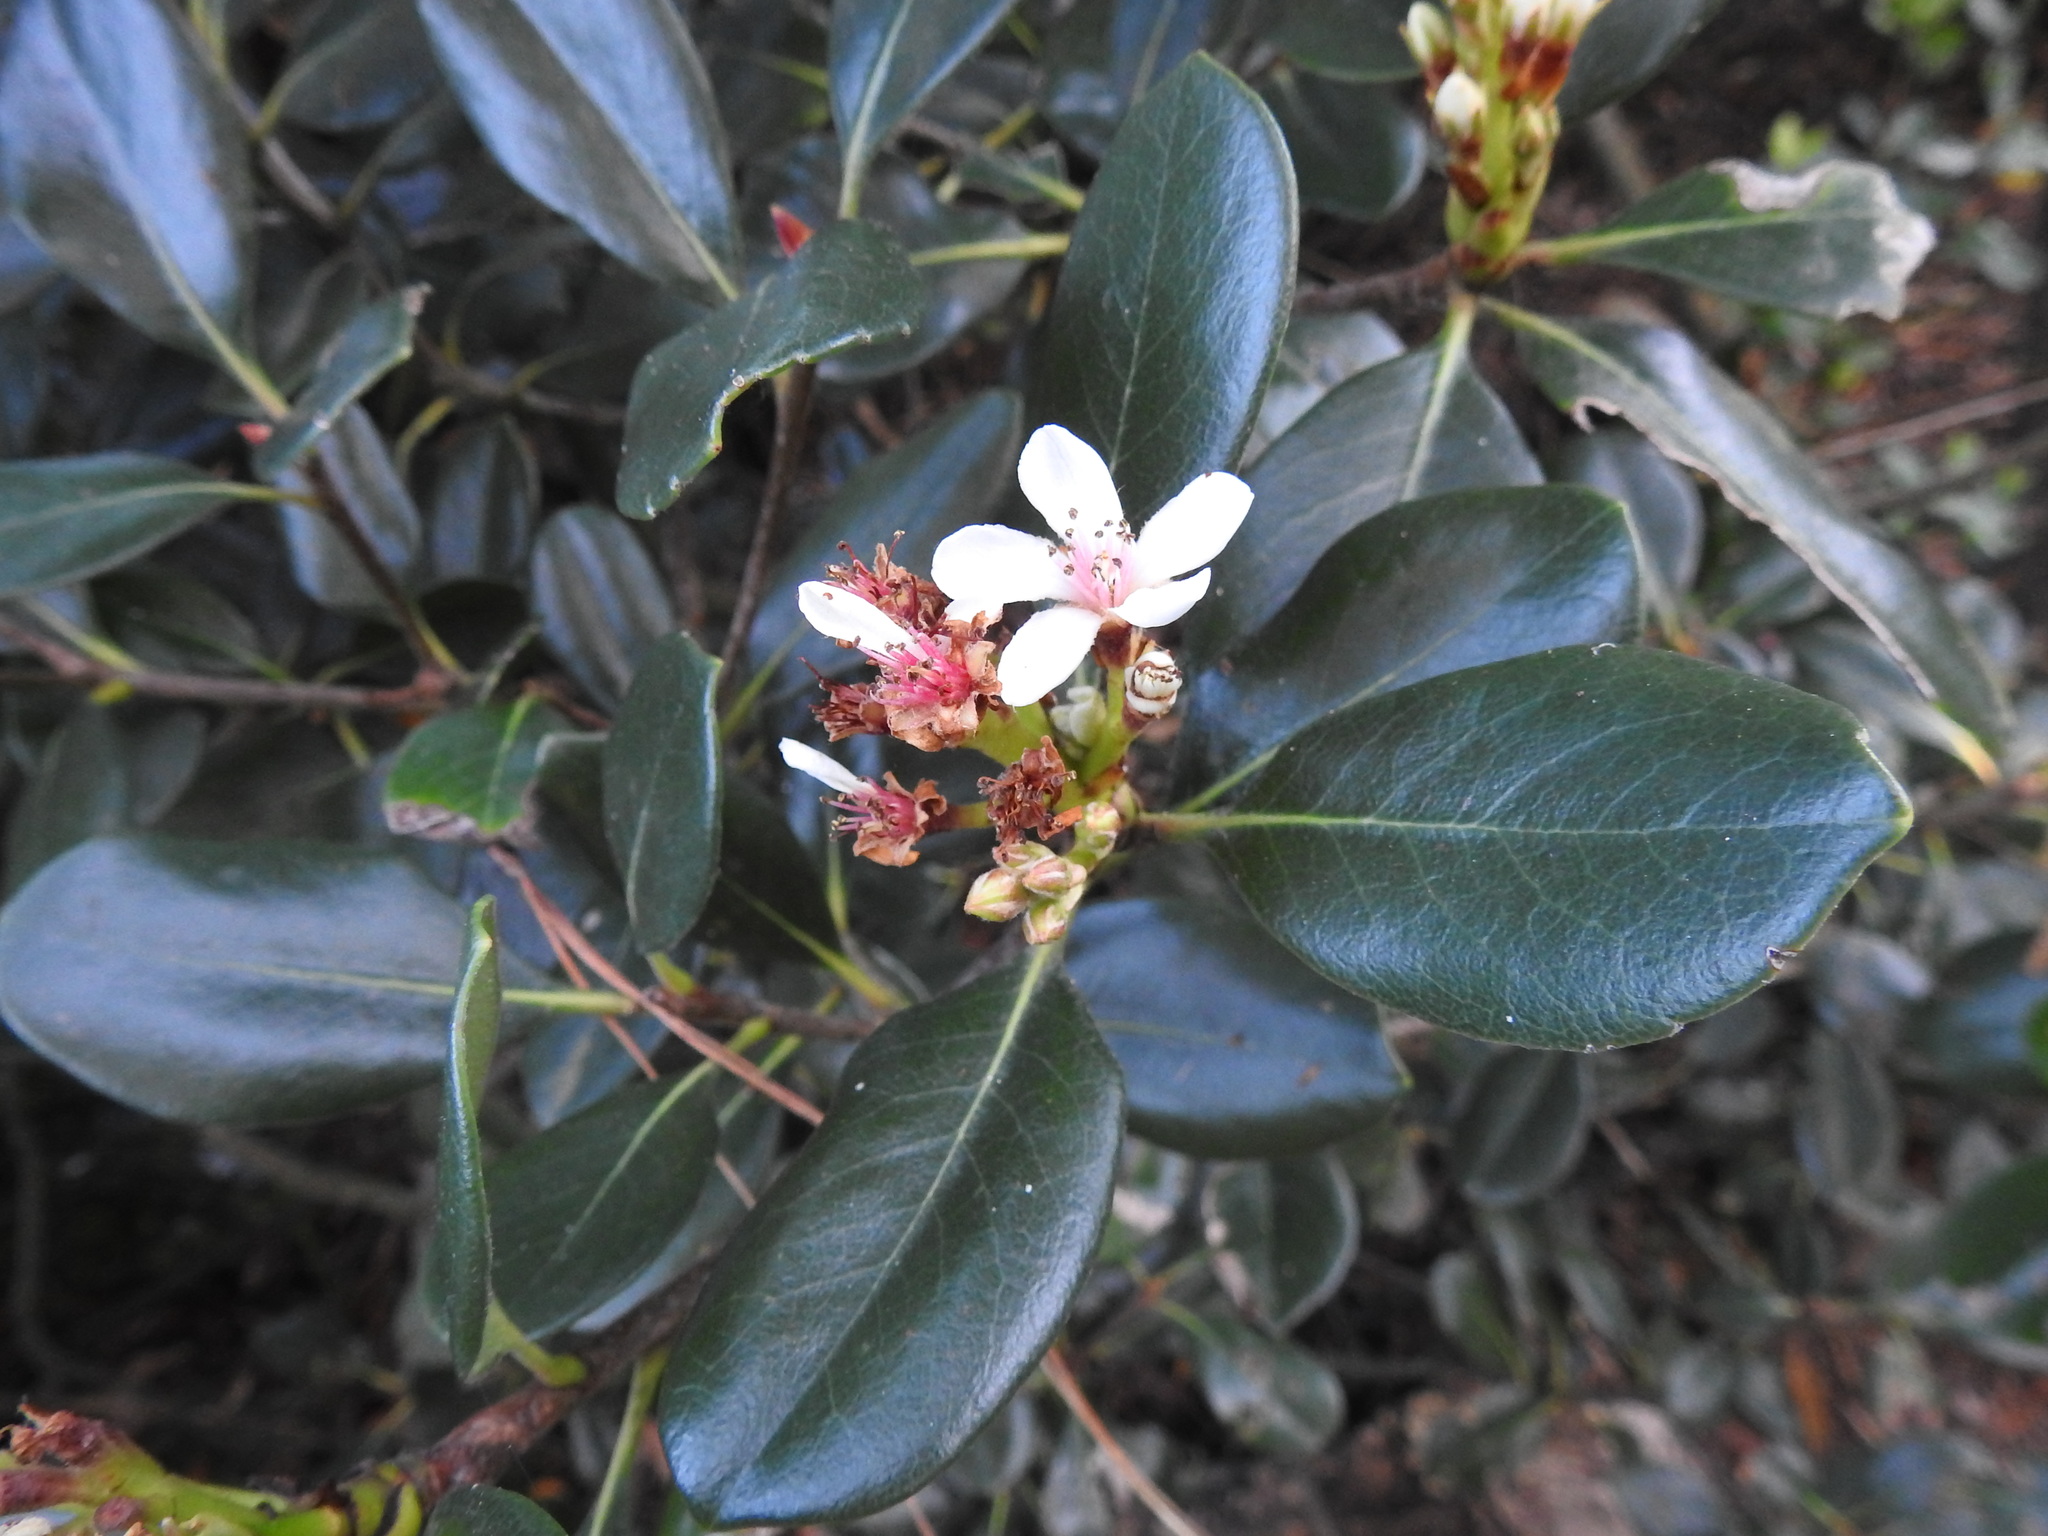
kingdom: Plantae
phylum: Tracheophyta
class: Magnoliopsida
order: Rosales
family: Rosaceae
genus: Rhaphiolepis
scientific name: Rhaphiolepis indica
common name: India-hawthorn
